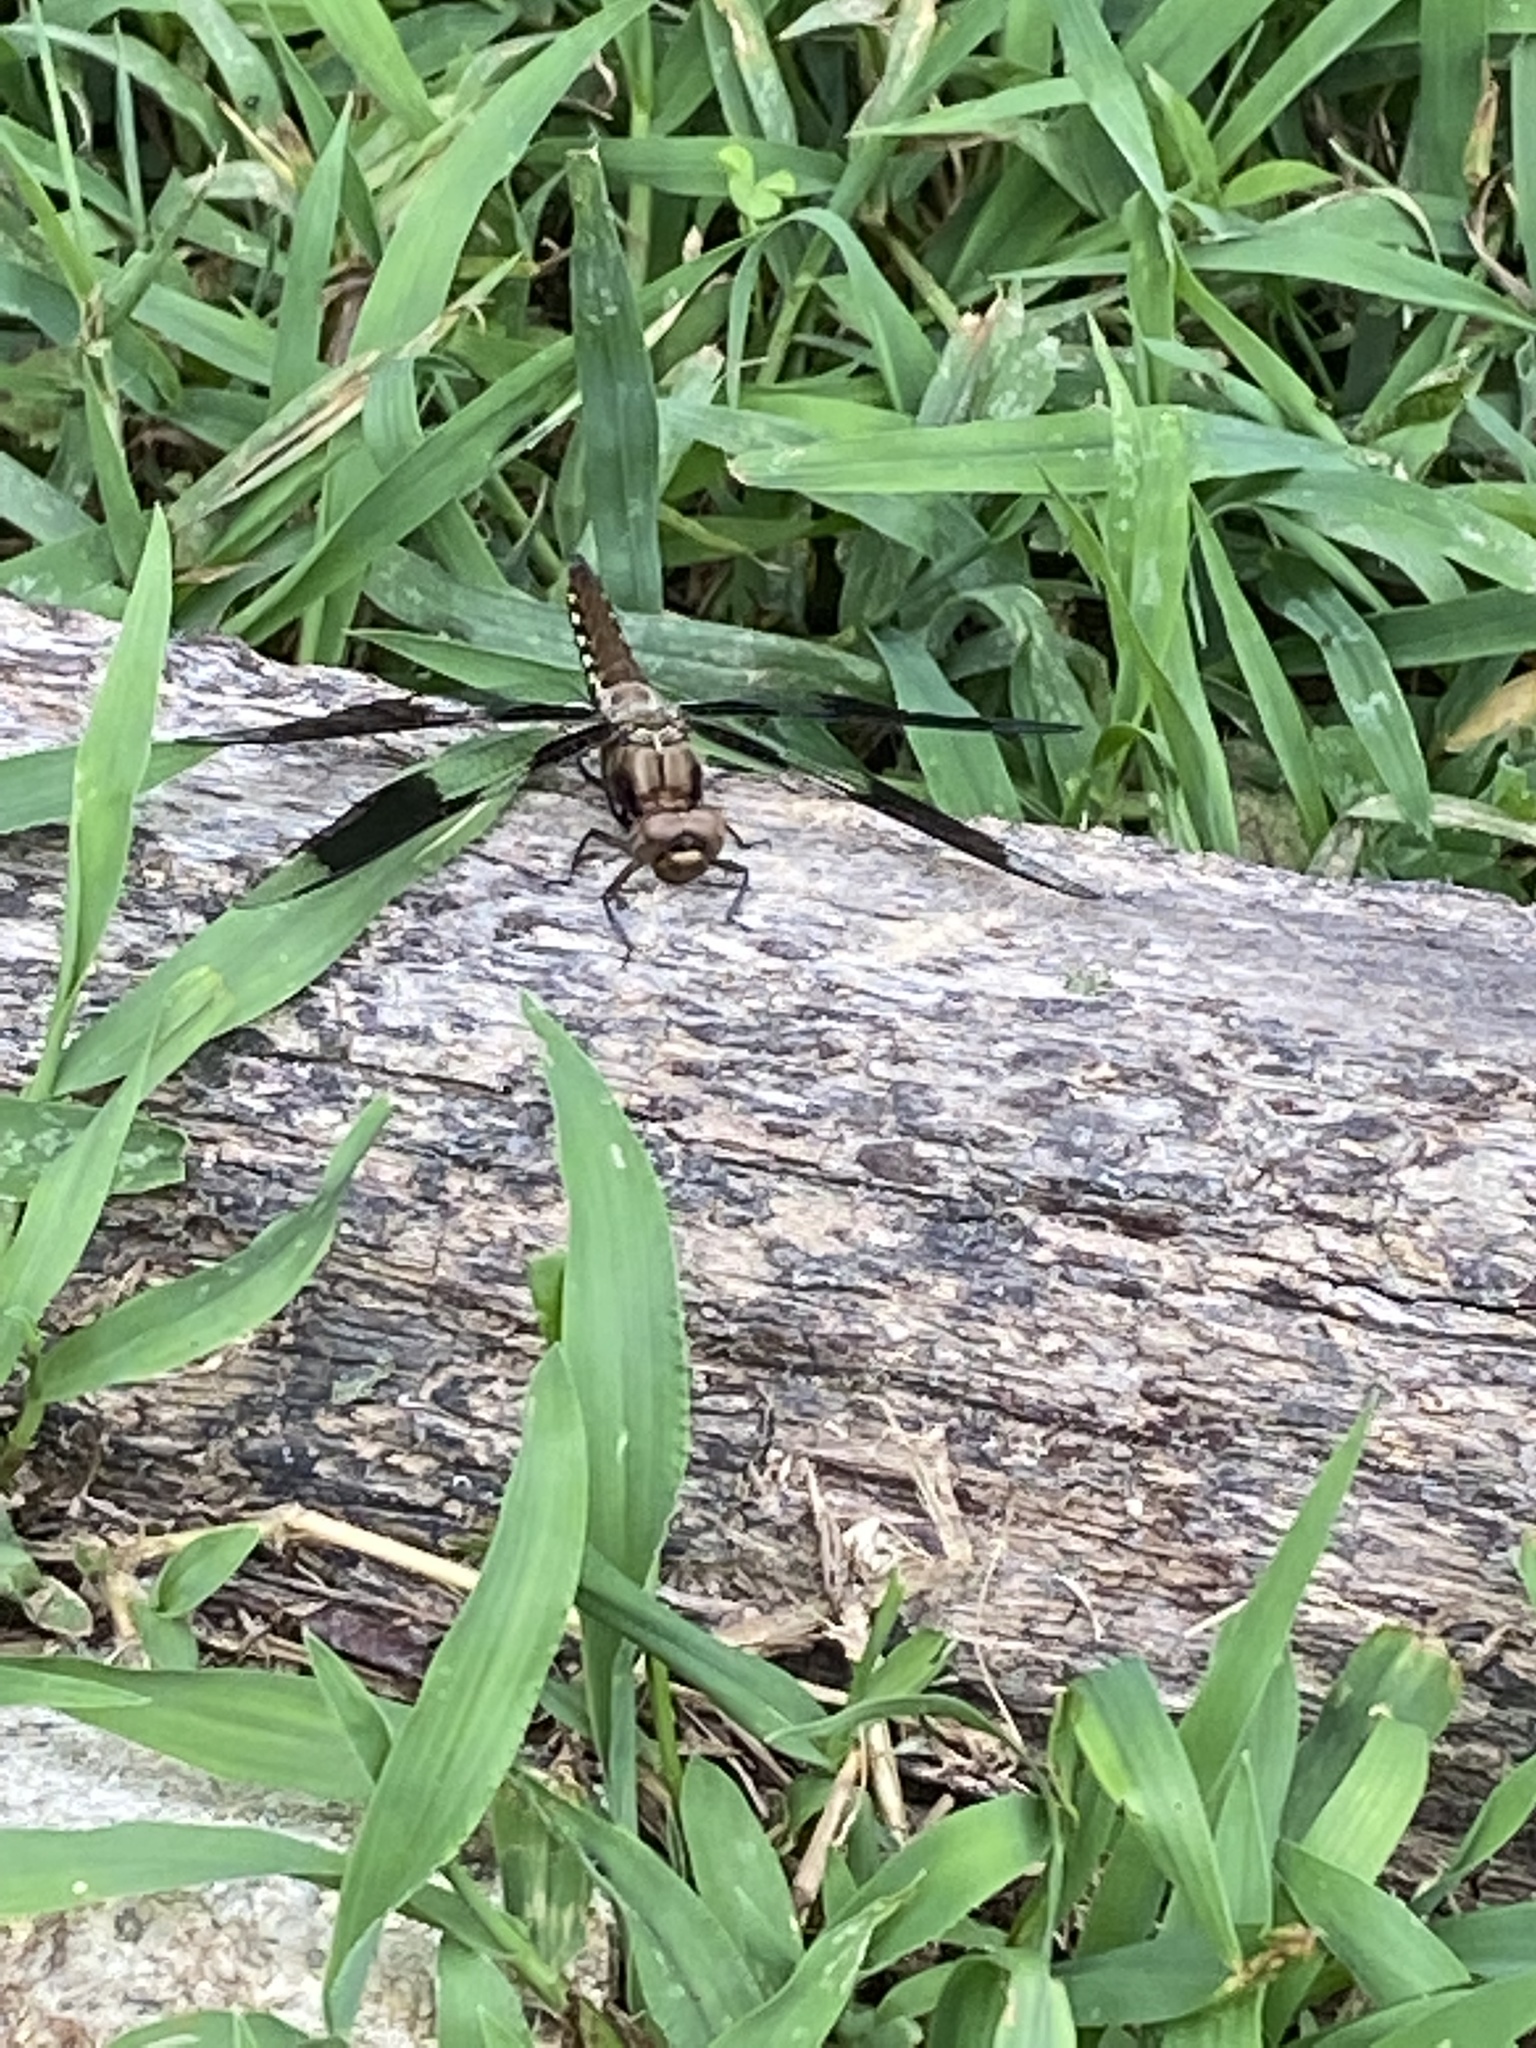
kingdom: Animalia
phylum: Arthropoda
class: Insecta
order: Odonata
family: Libellulidae
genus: Plathemis
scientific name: Plathemis lydia
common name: Common whitetail
